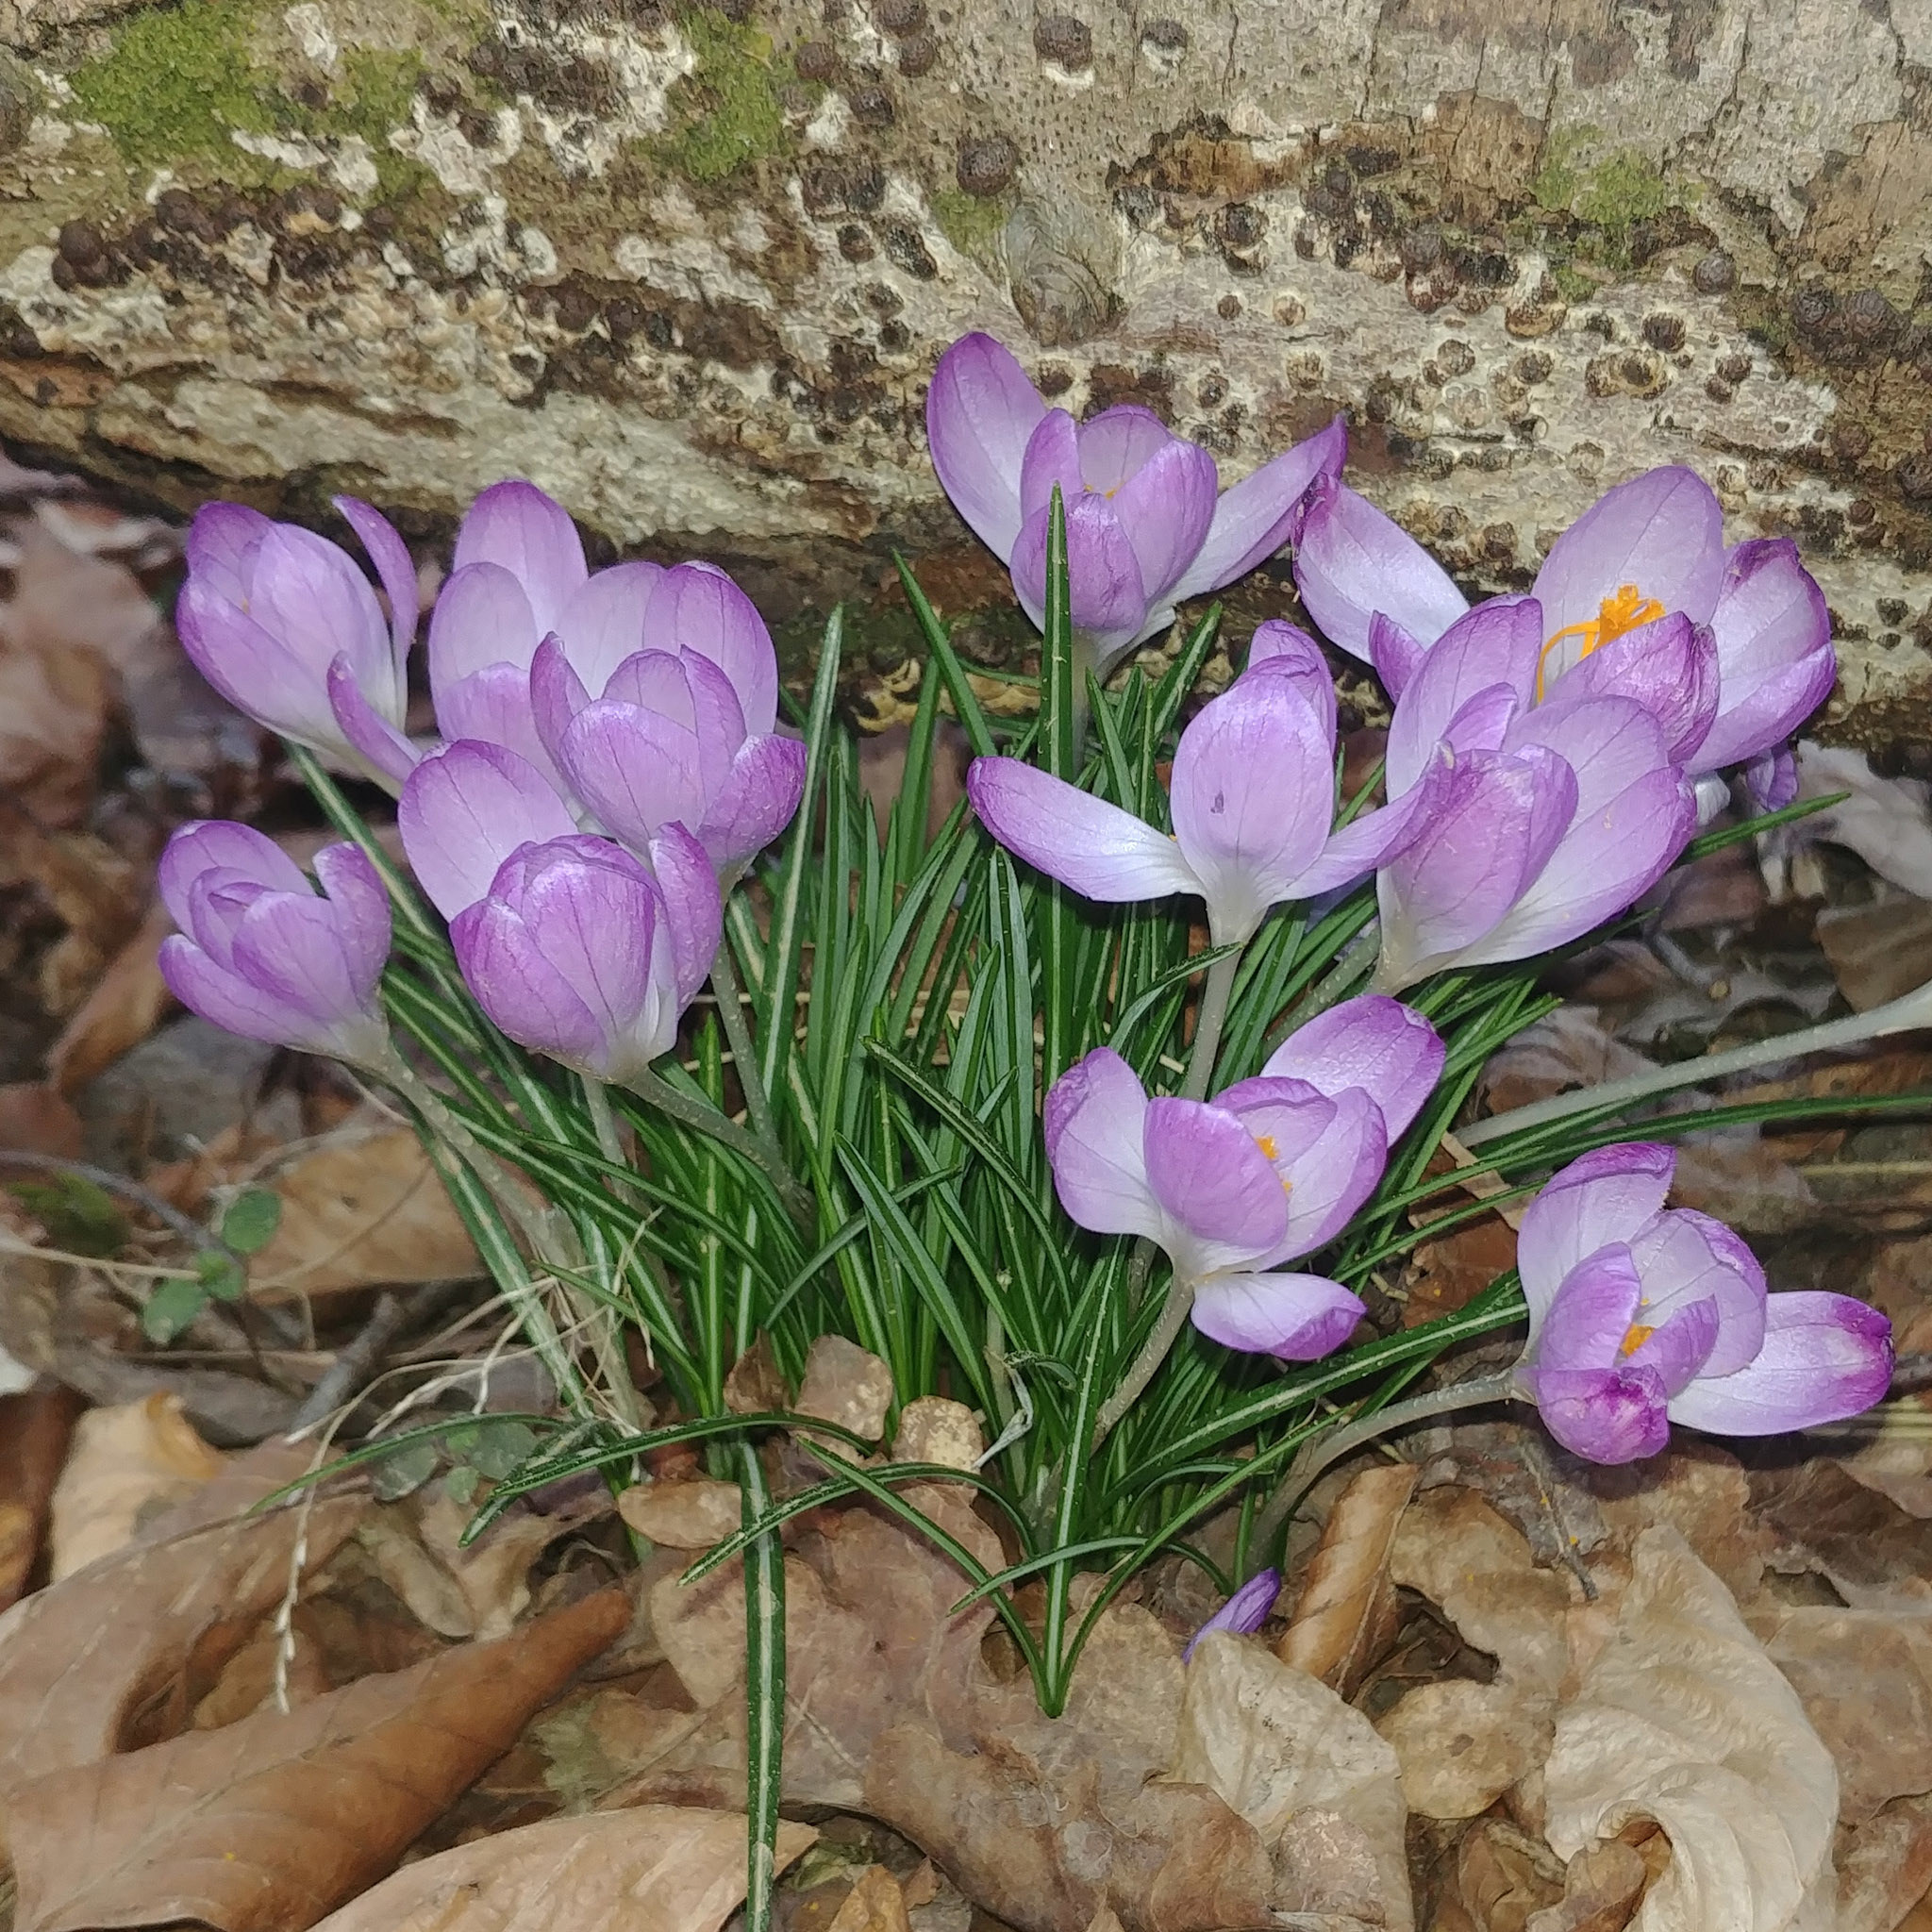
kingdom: Plantae
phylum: Tracheophyta
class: Liliopsida
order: Asparagales
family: Iridaceae
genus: Crocus
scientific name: Crocus tommasinianus
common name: Early crocus
